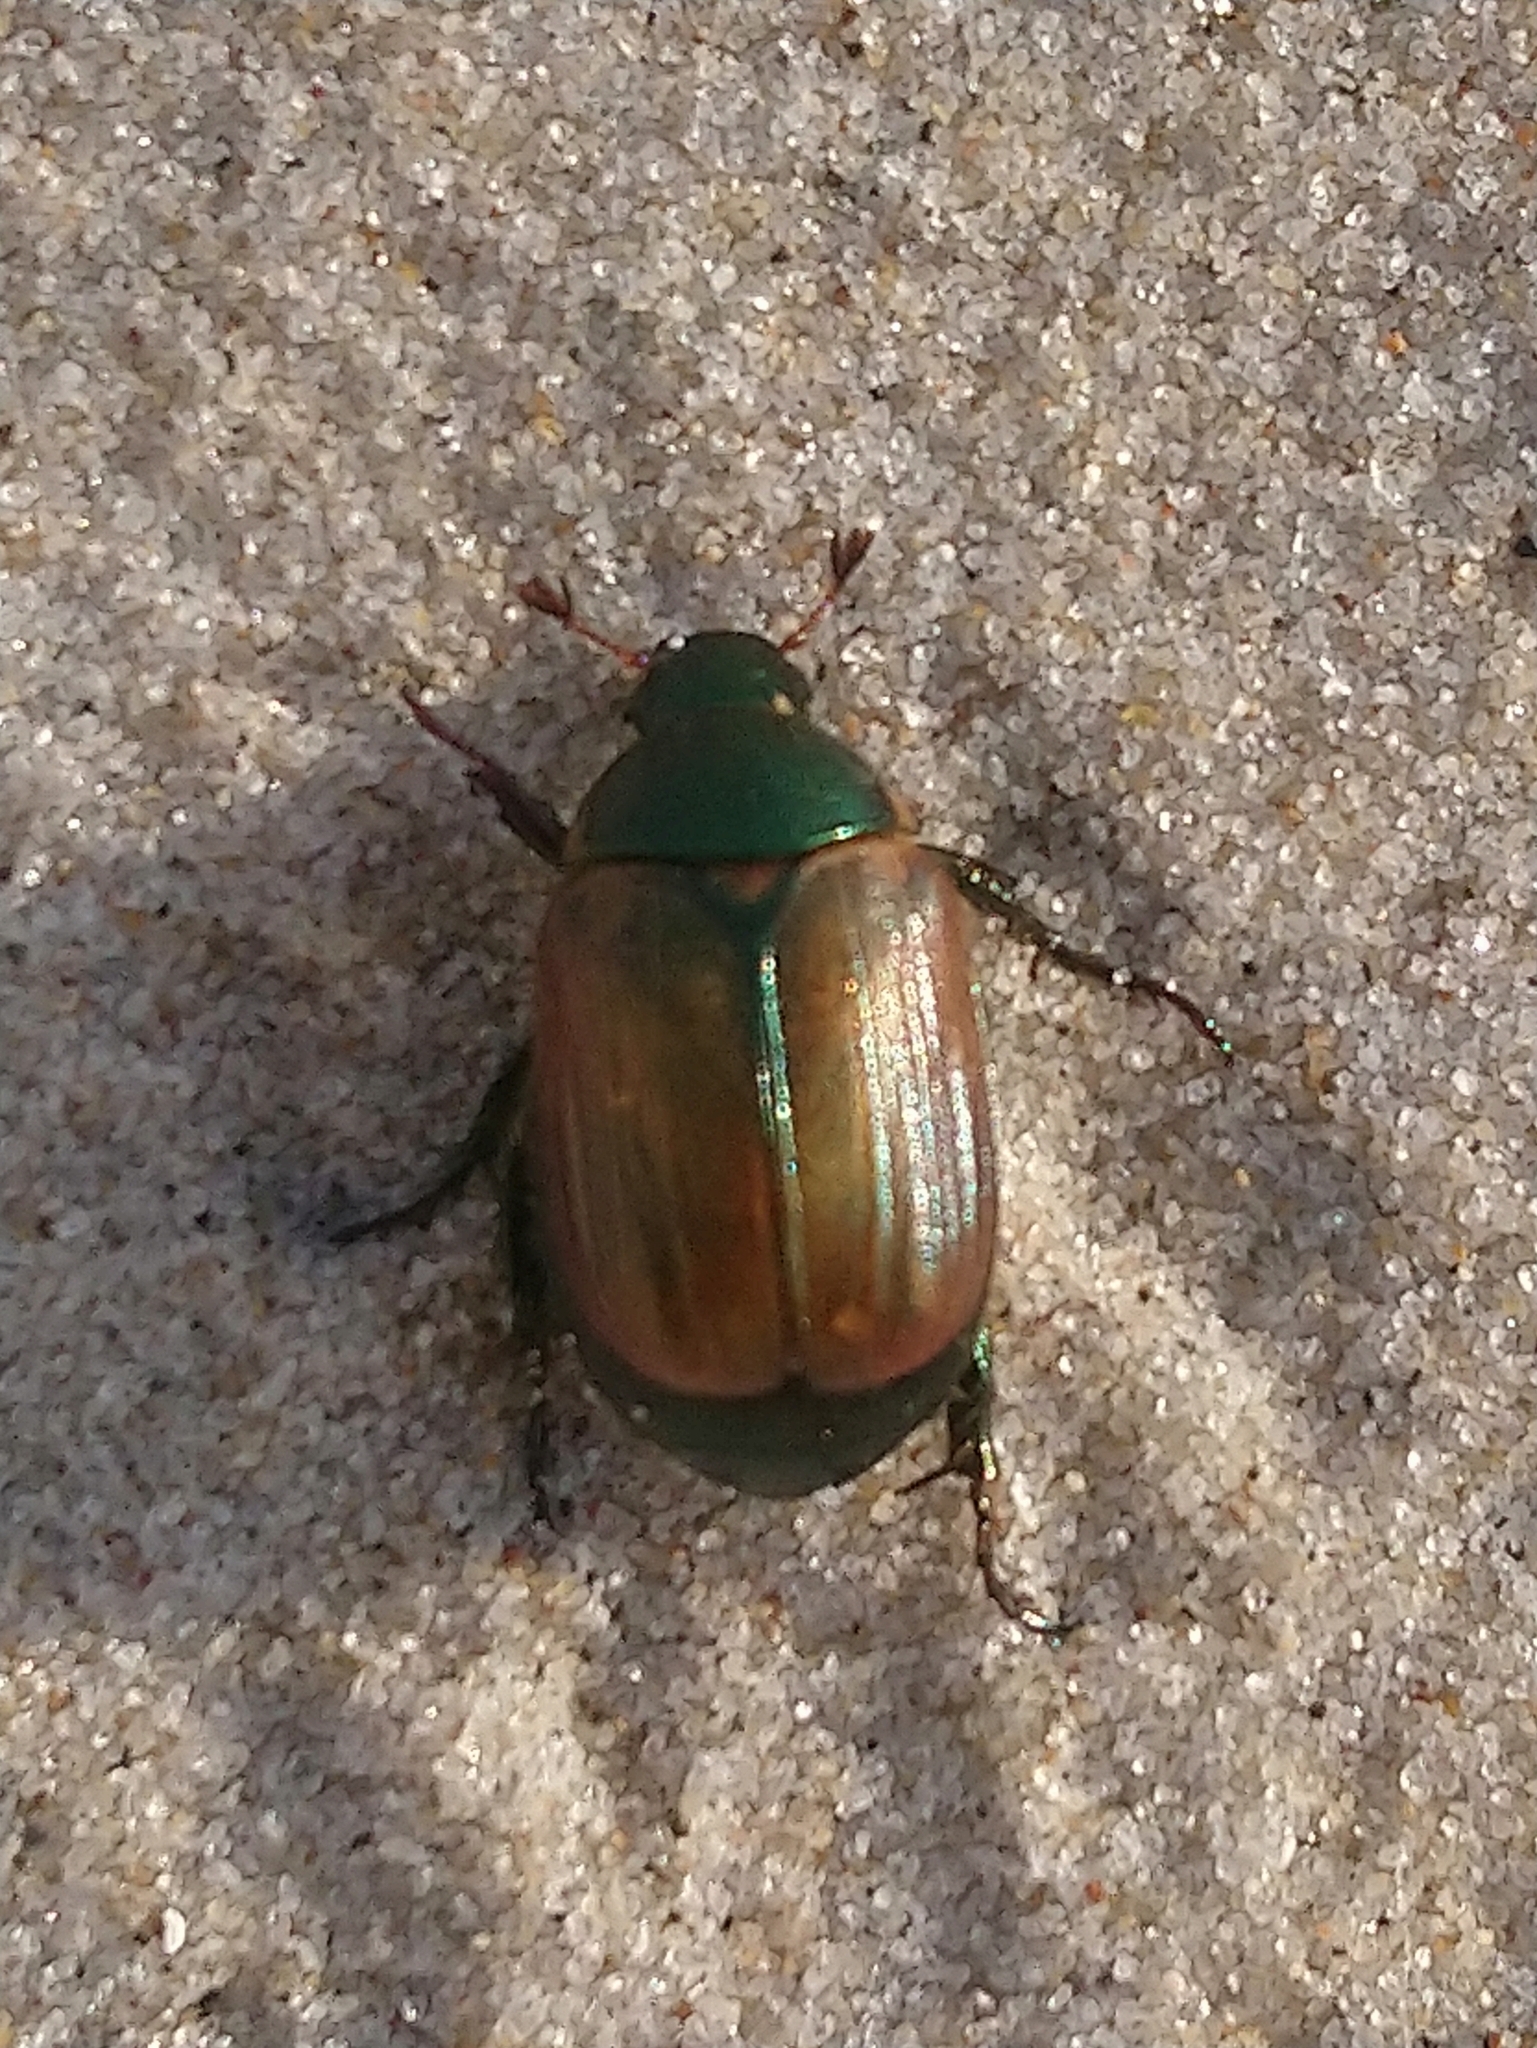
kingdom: Animalia
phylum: Arthropoda
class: Insecta
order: Coleoptera
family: Scarabaeidae
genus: Anomala
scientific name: Anomala dubia
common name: Dune chafer
